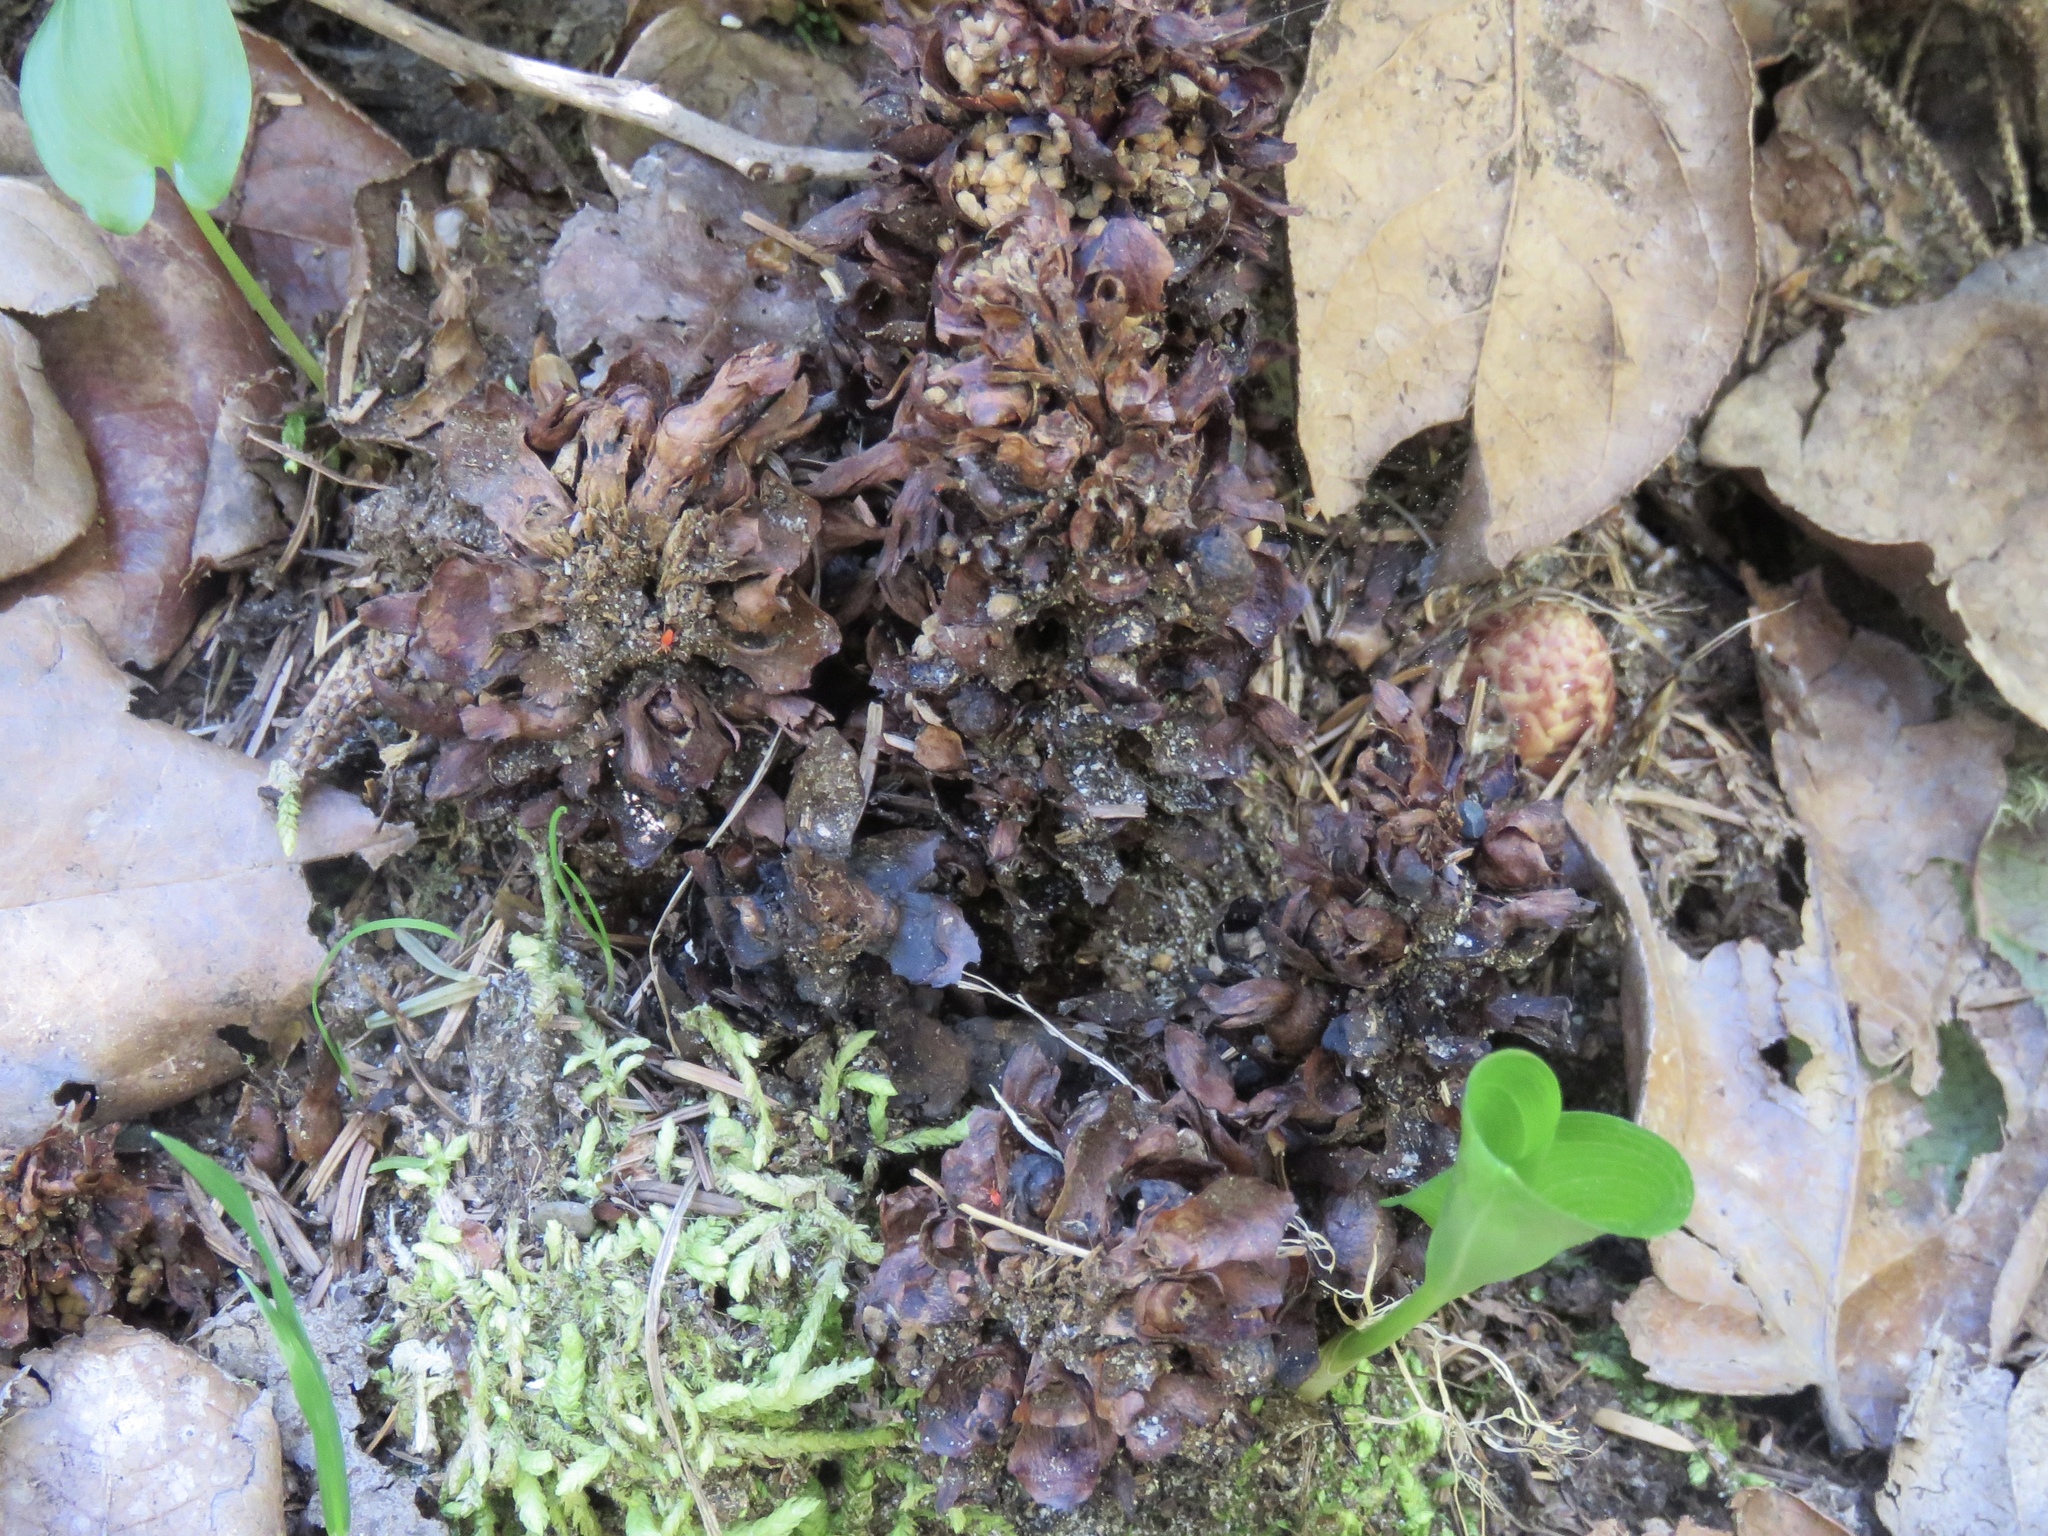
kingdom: Plantae
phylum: Tracheophyta
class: Magnoliopsida
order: Lamiales
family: Orobanchaceae
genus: Kopsiopsis
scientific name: Kopsiopsis hookeri
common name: Hooker's groundcone
